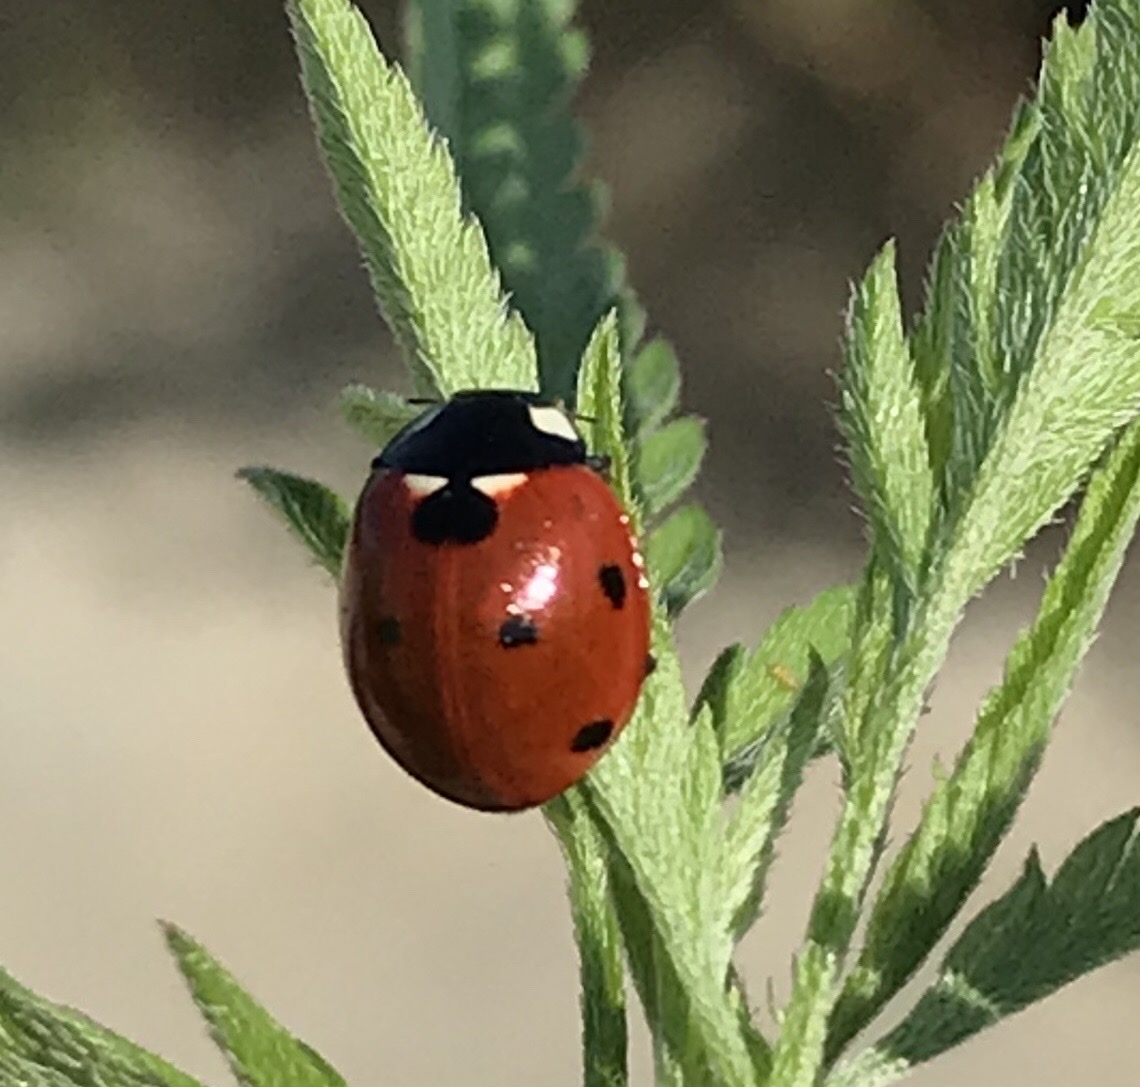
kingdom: Animalia
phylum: Arthropoda
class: Insecta
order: Coleoptera
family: Coccinellidae
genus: Coccinella
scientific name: Coccinella septempunctata
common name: Sevenspotted lady beetle
